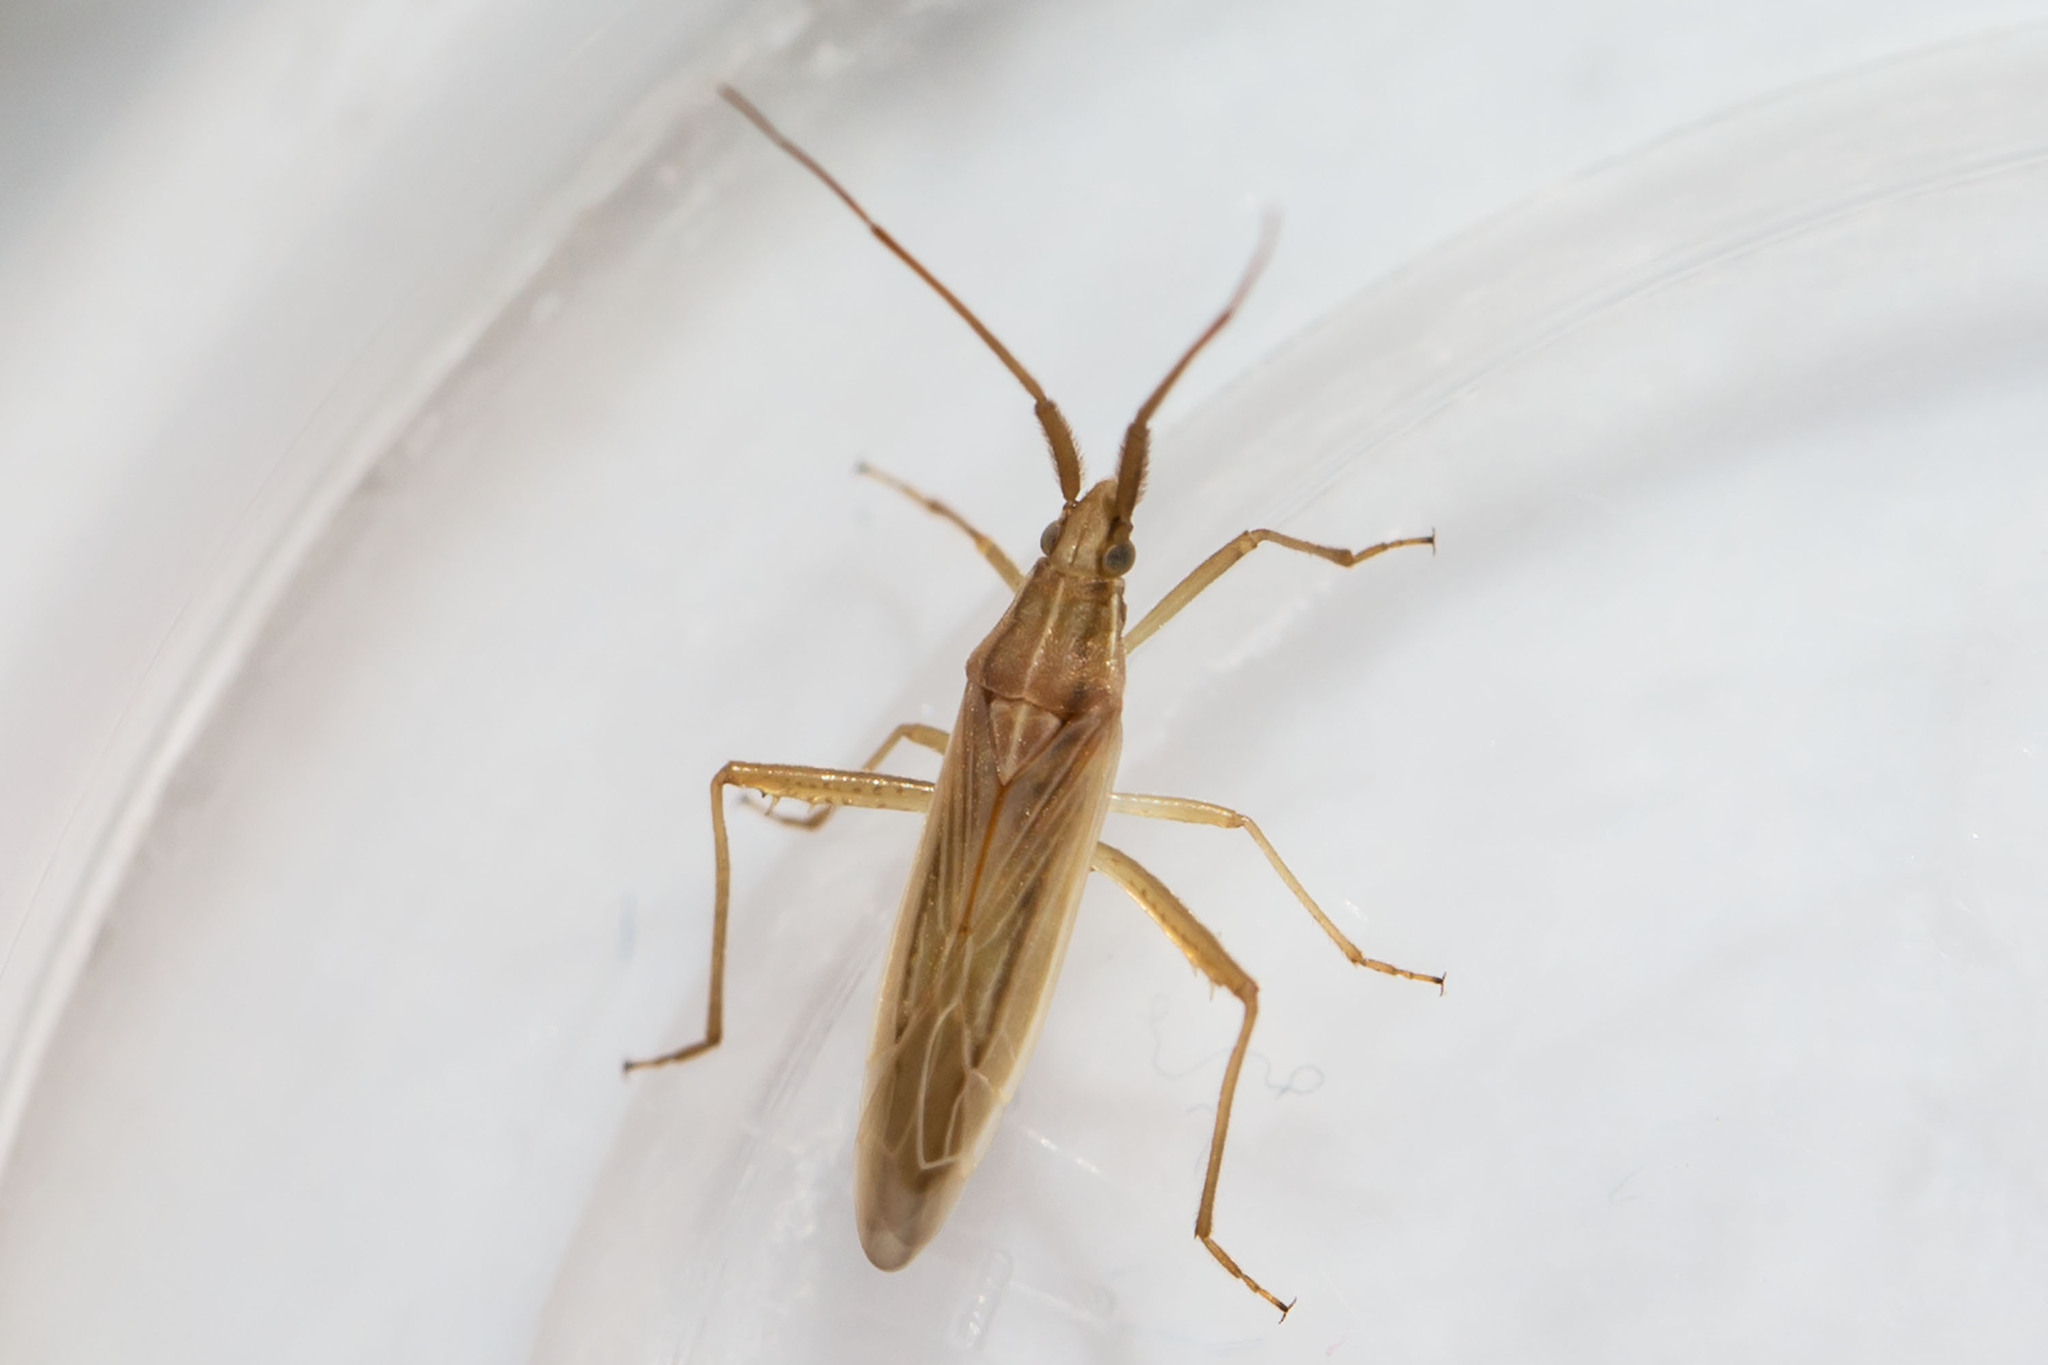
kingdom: Animalia
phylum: Arthropoda
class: Insecta
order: Hemiptera
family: Miridae
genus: Stenodema
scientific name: Stenodema trispinosa
